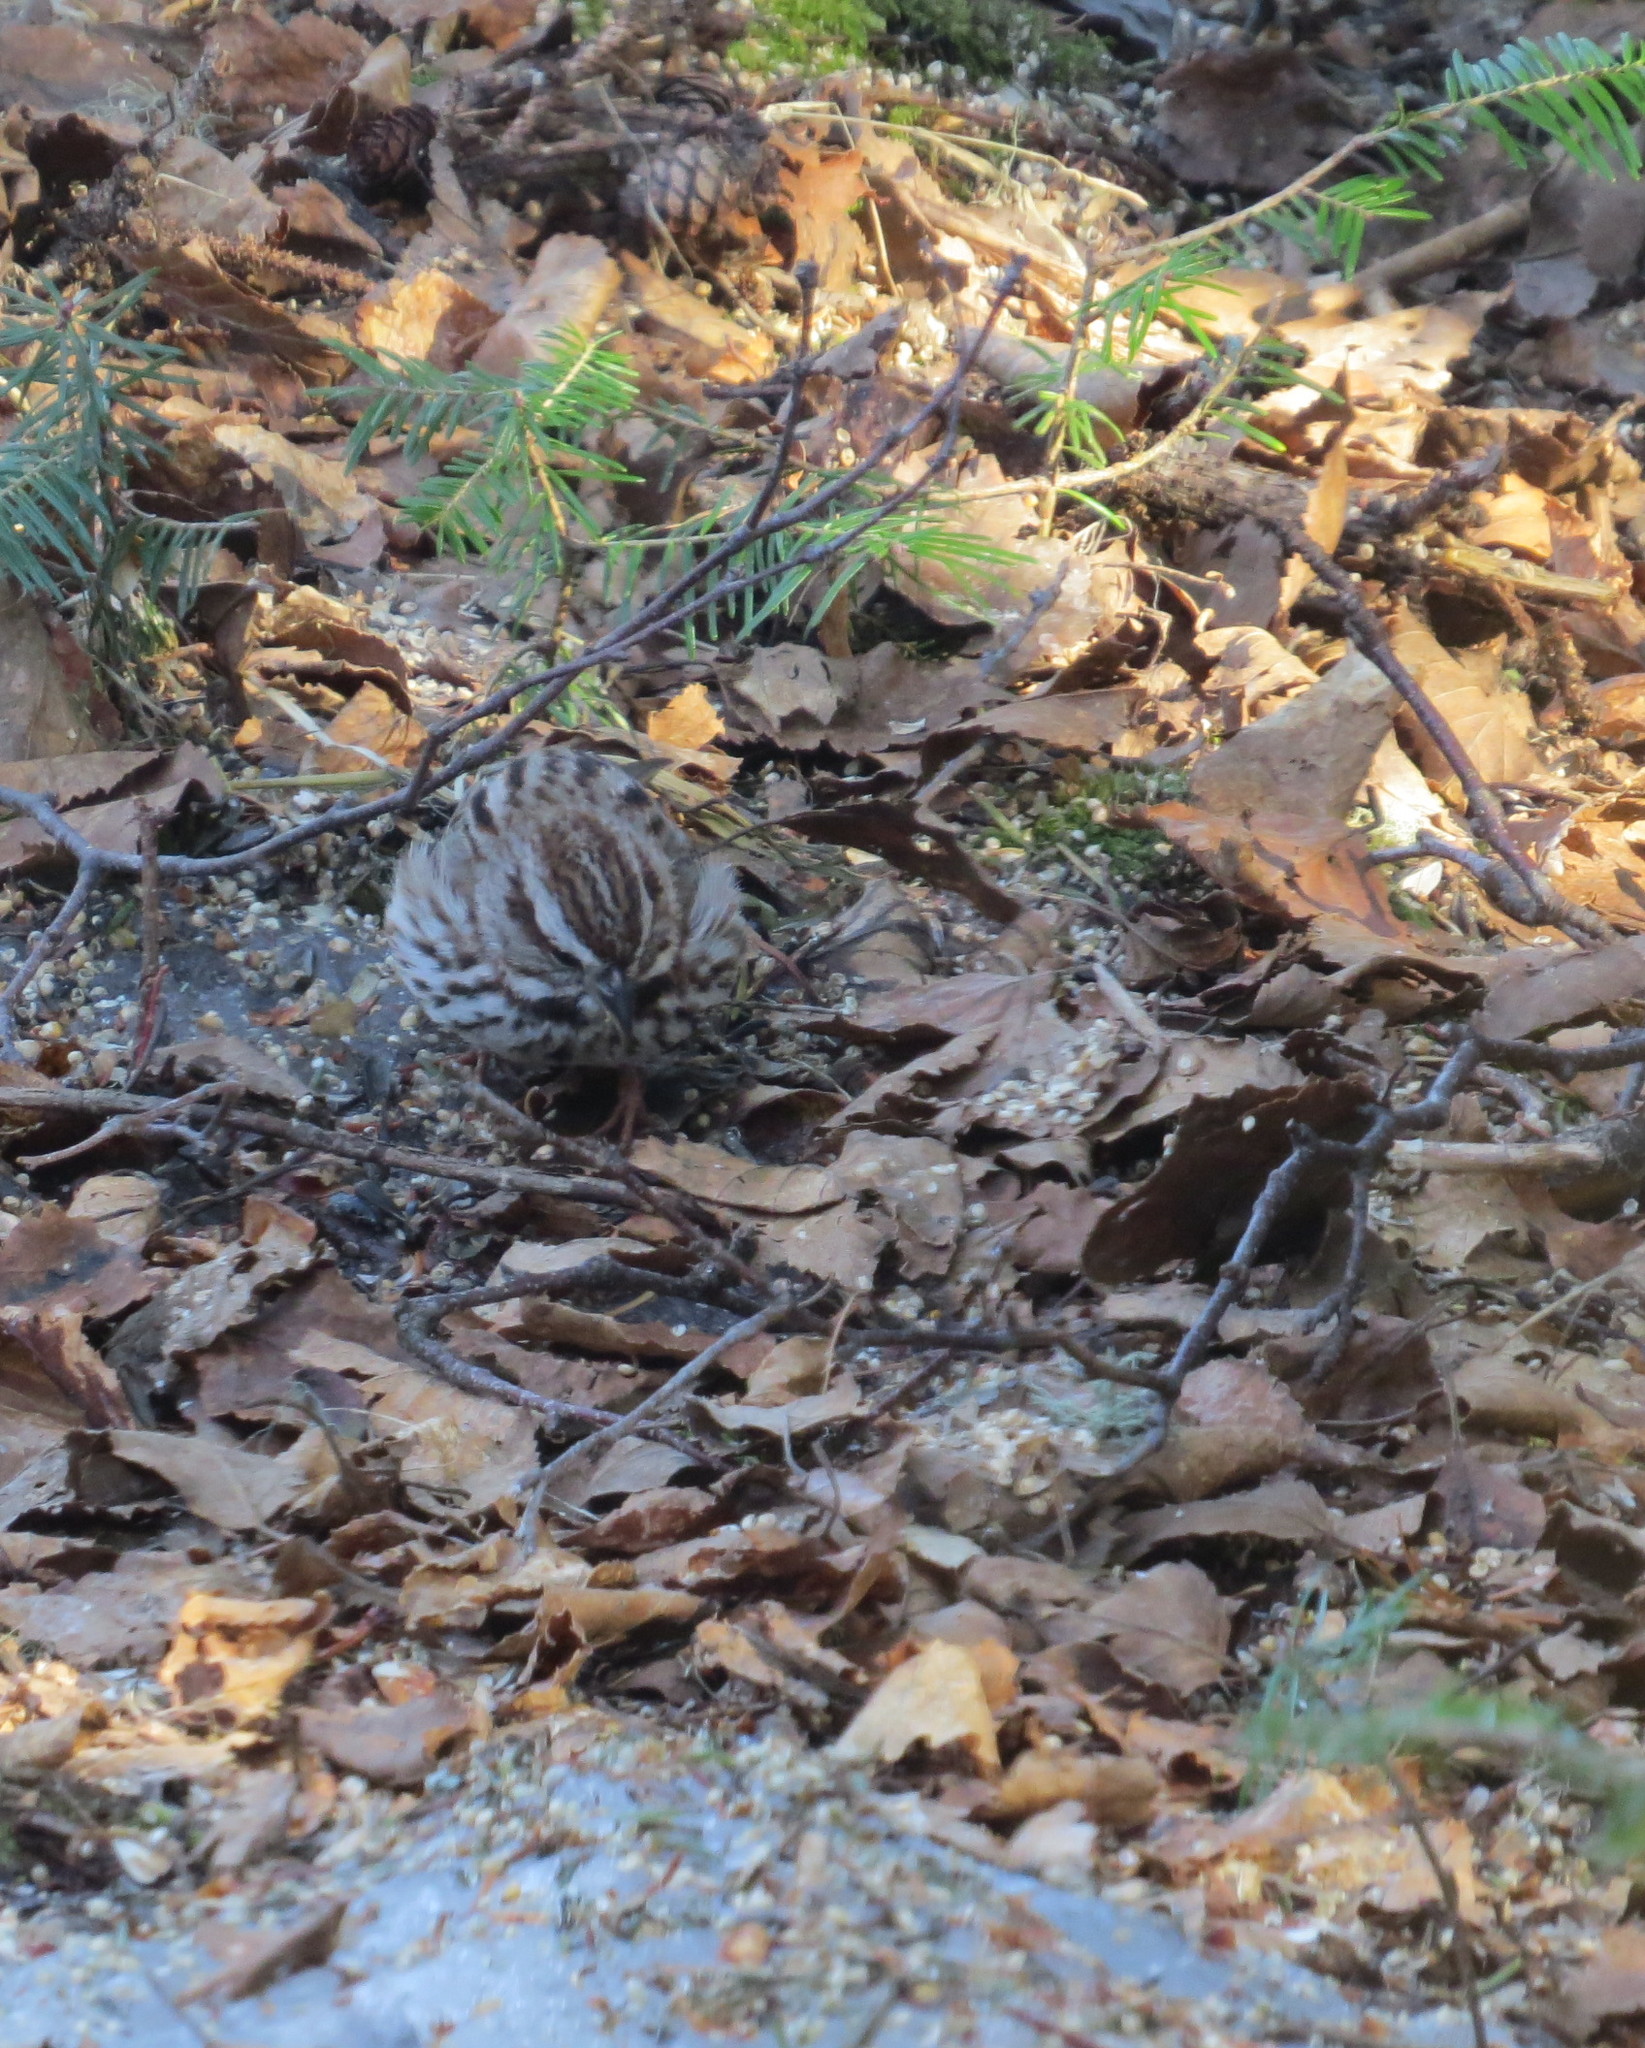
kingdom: Animalia
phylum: Chordata
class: Aves
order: Passeriformes
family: Passerellidae
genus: Melospiza
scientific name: Melospiza melodia
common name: Song sparrow
